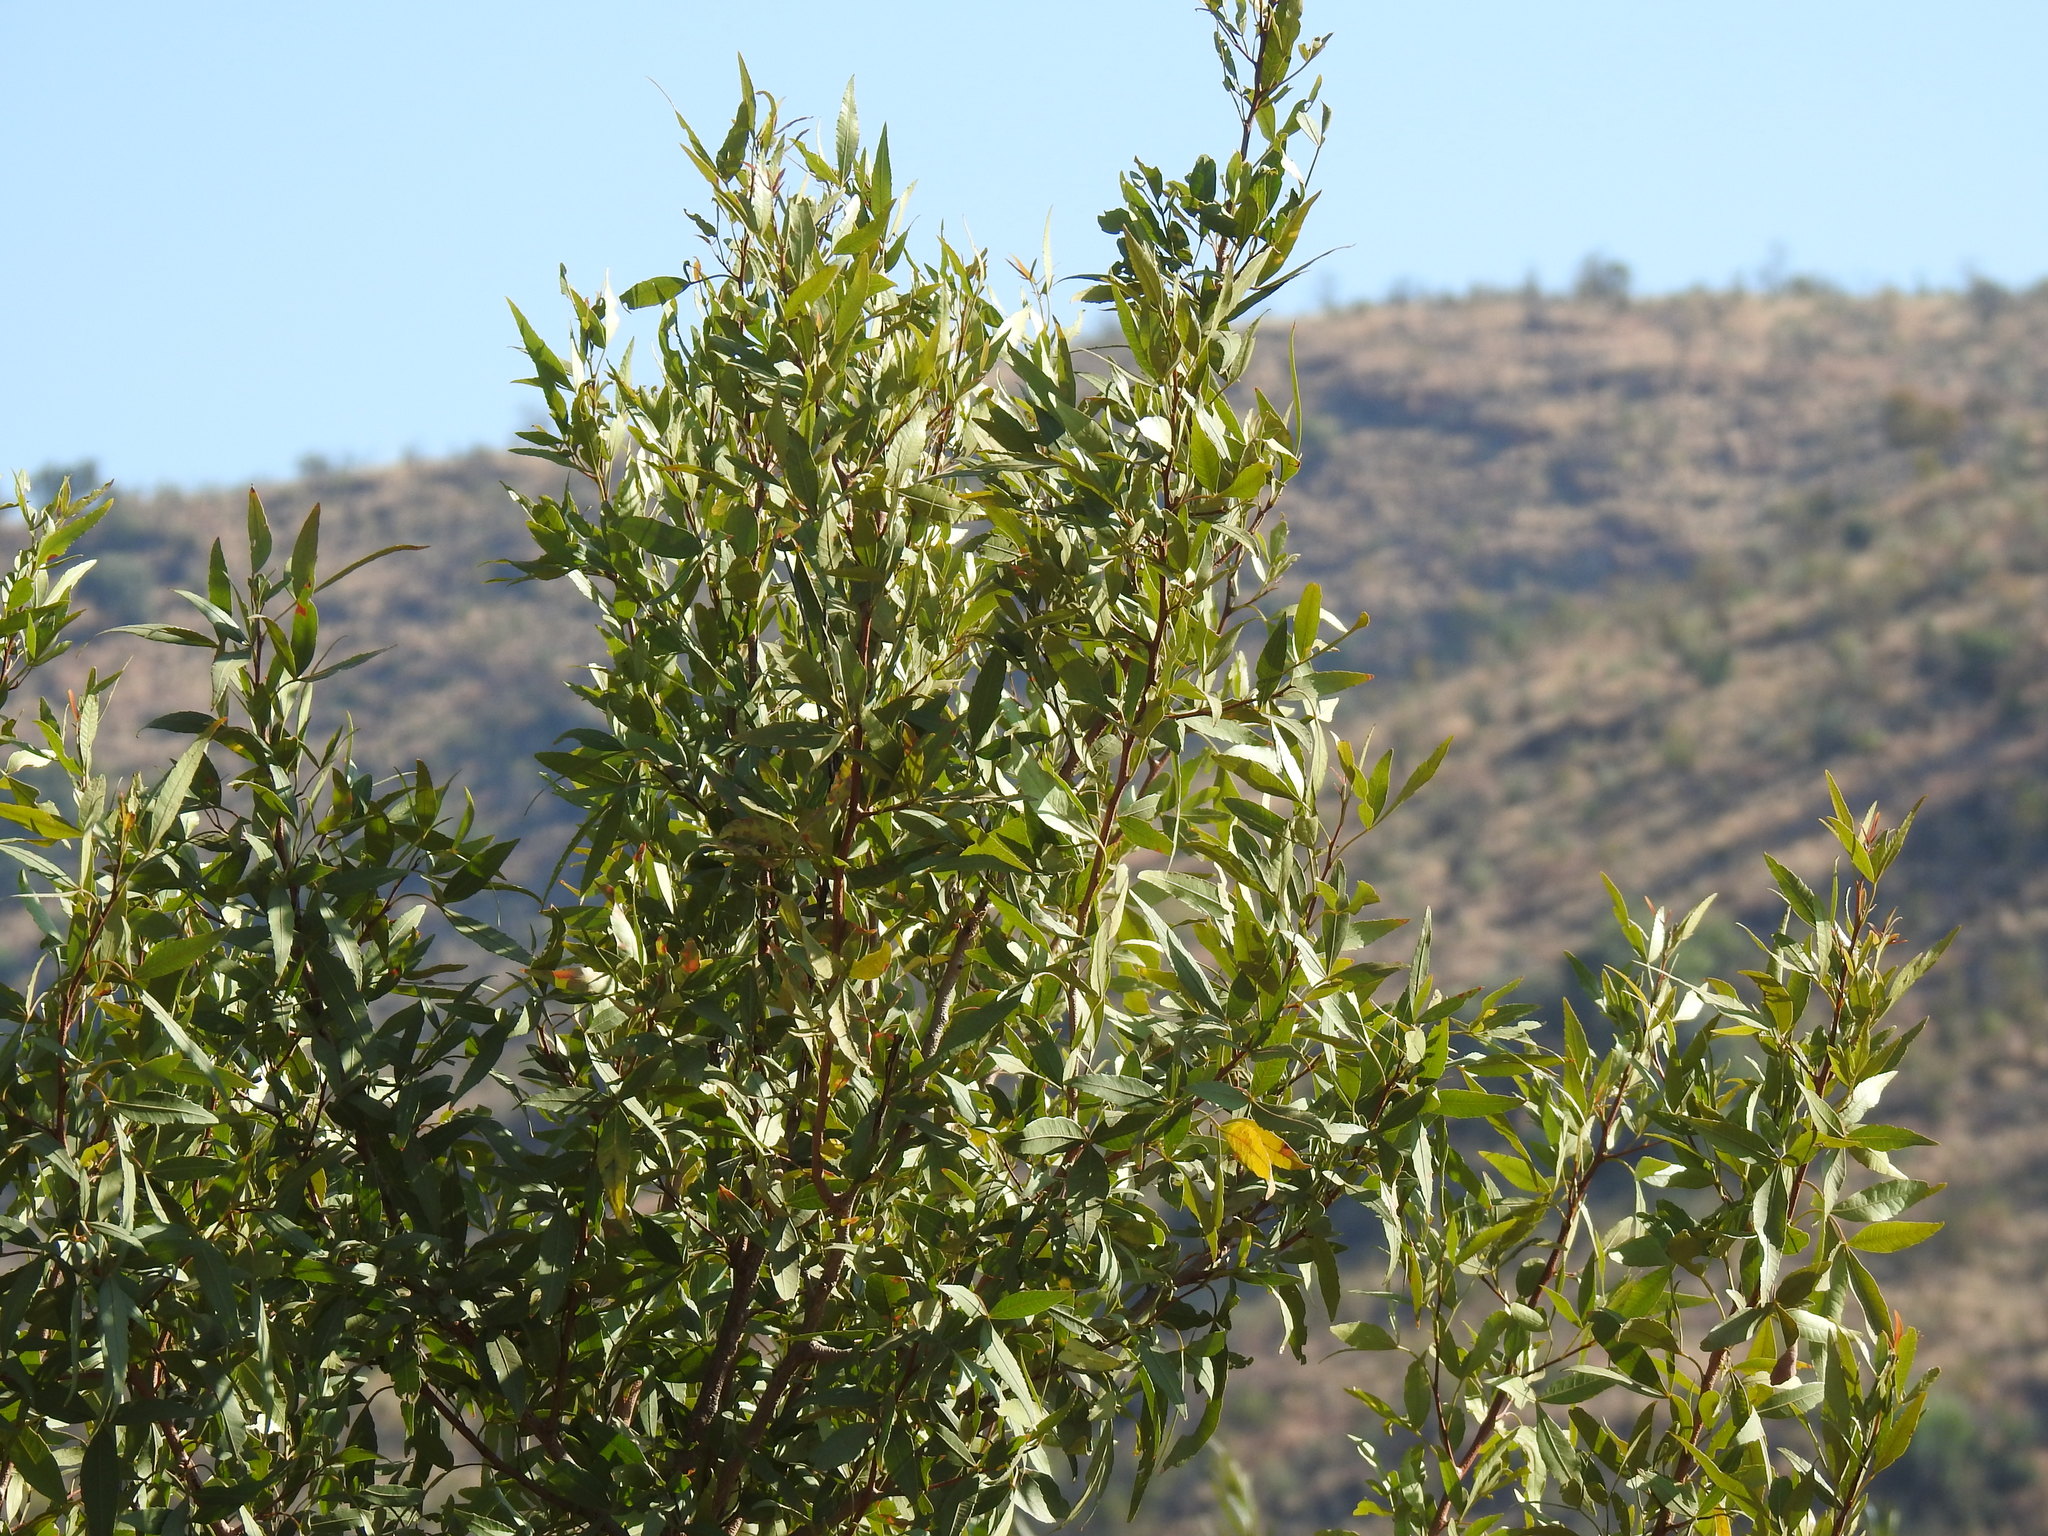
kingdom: Plantae
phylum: Tracheophyta
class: Magnoliopsida
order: Sapindales
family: Anacardiaceae
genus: Searsia
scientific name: Searsia leptodictya
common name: Mountain karee
